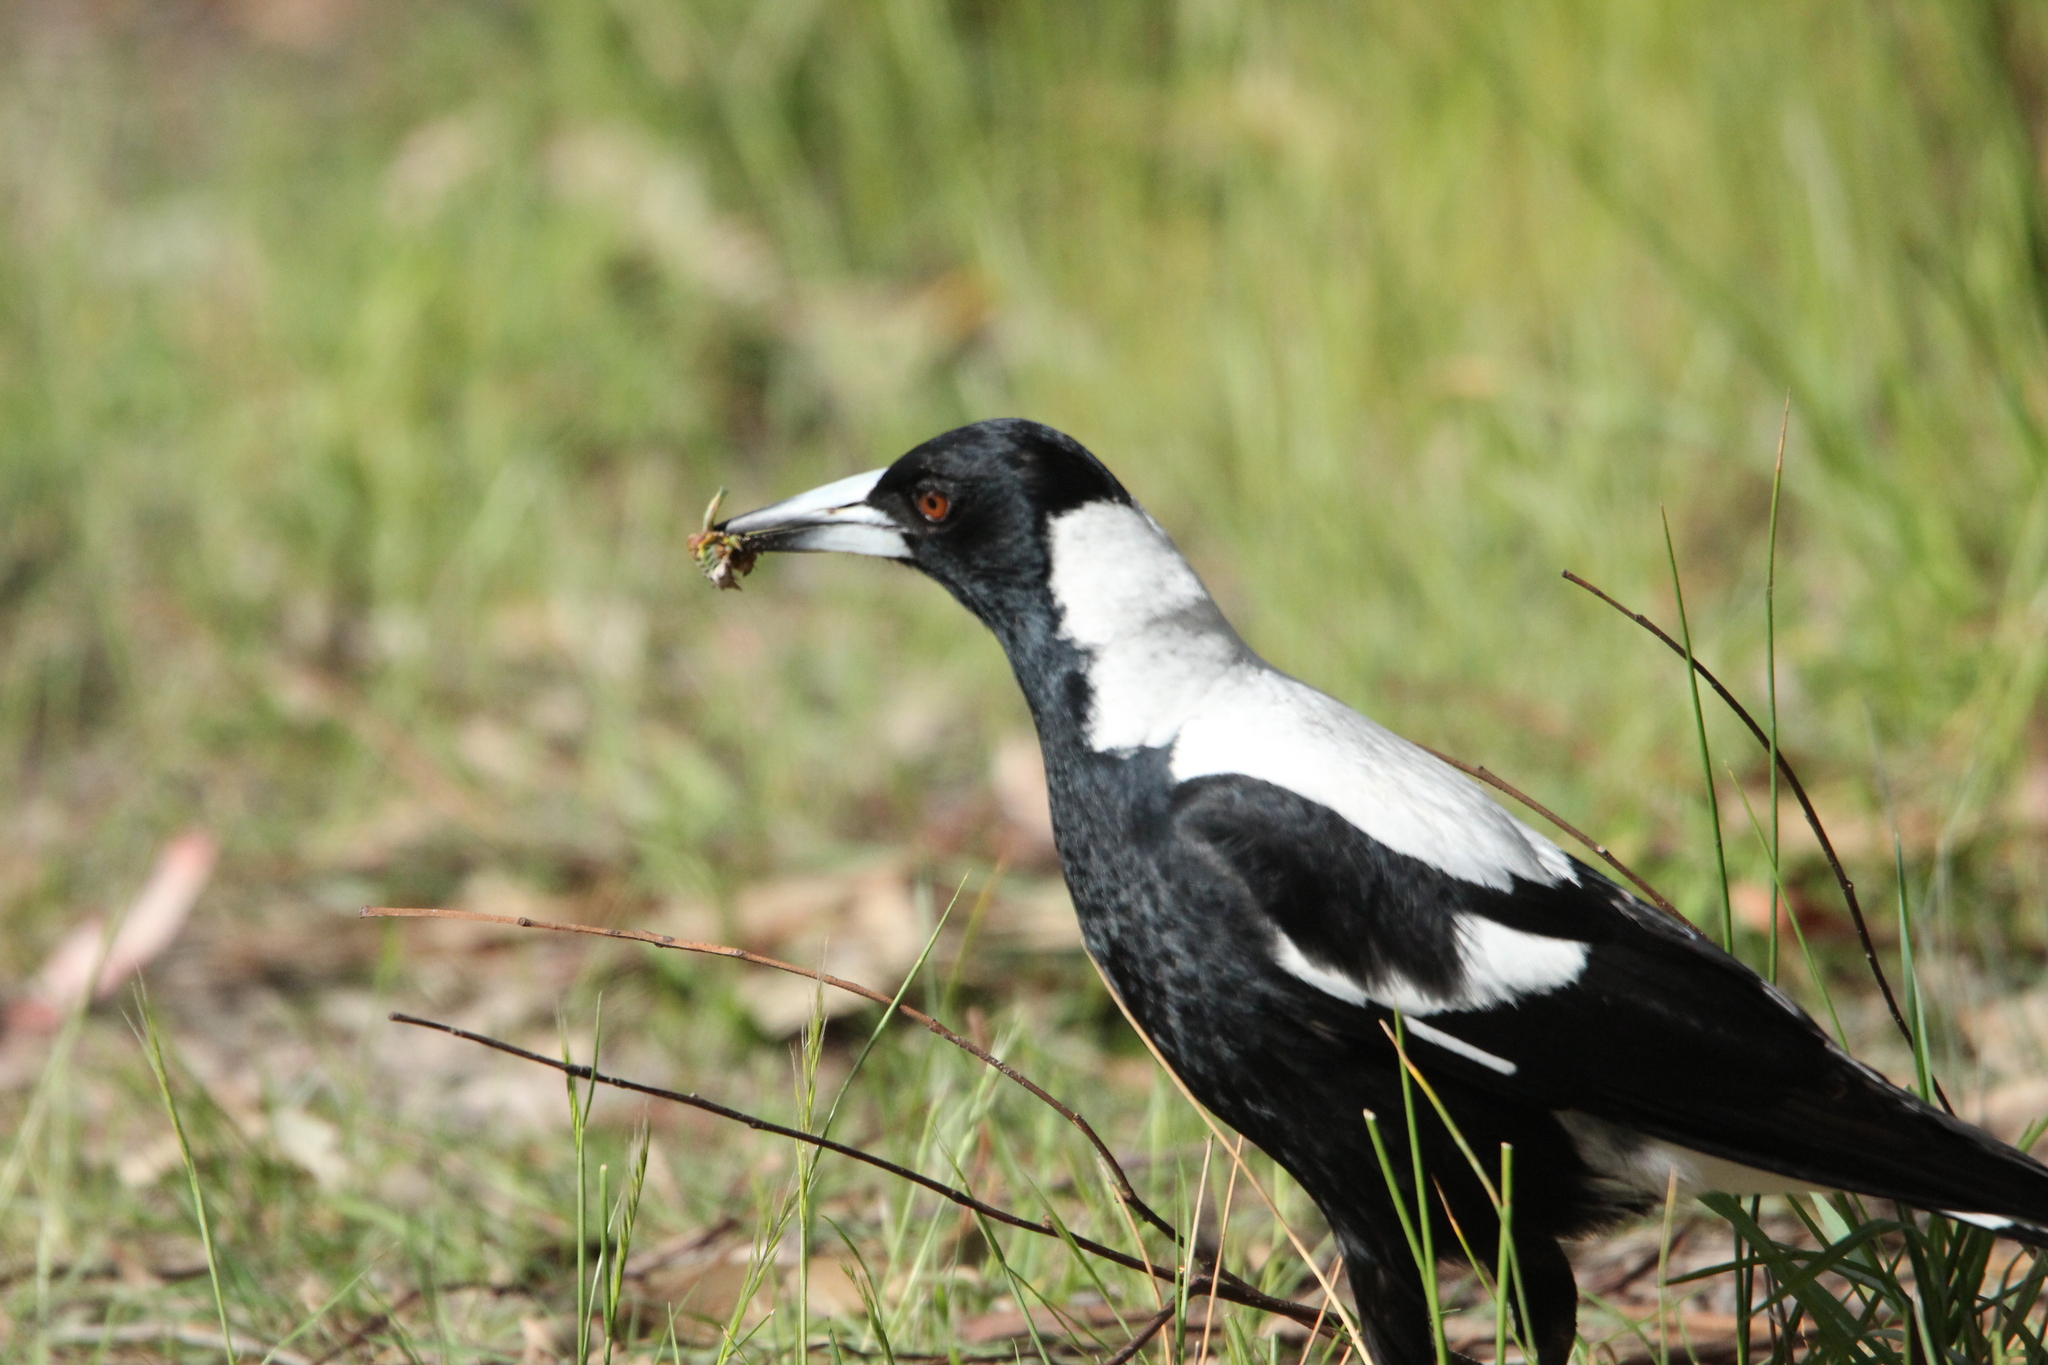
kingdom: Animalia
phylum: Chordata
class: Aves
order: Passeriformes
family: Cracticidae
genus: Gymnorhina
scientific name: Gymnorhina tibicen
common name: Australian magpie
